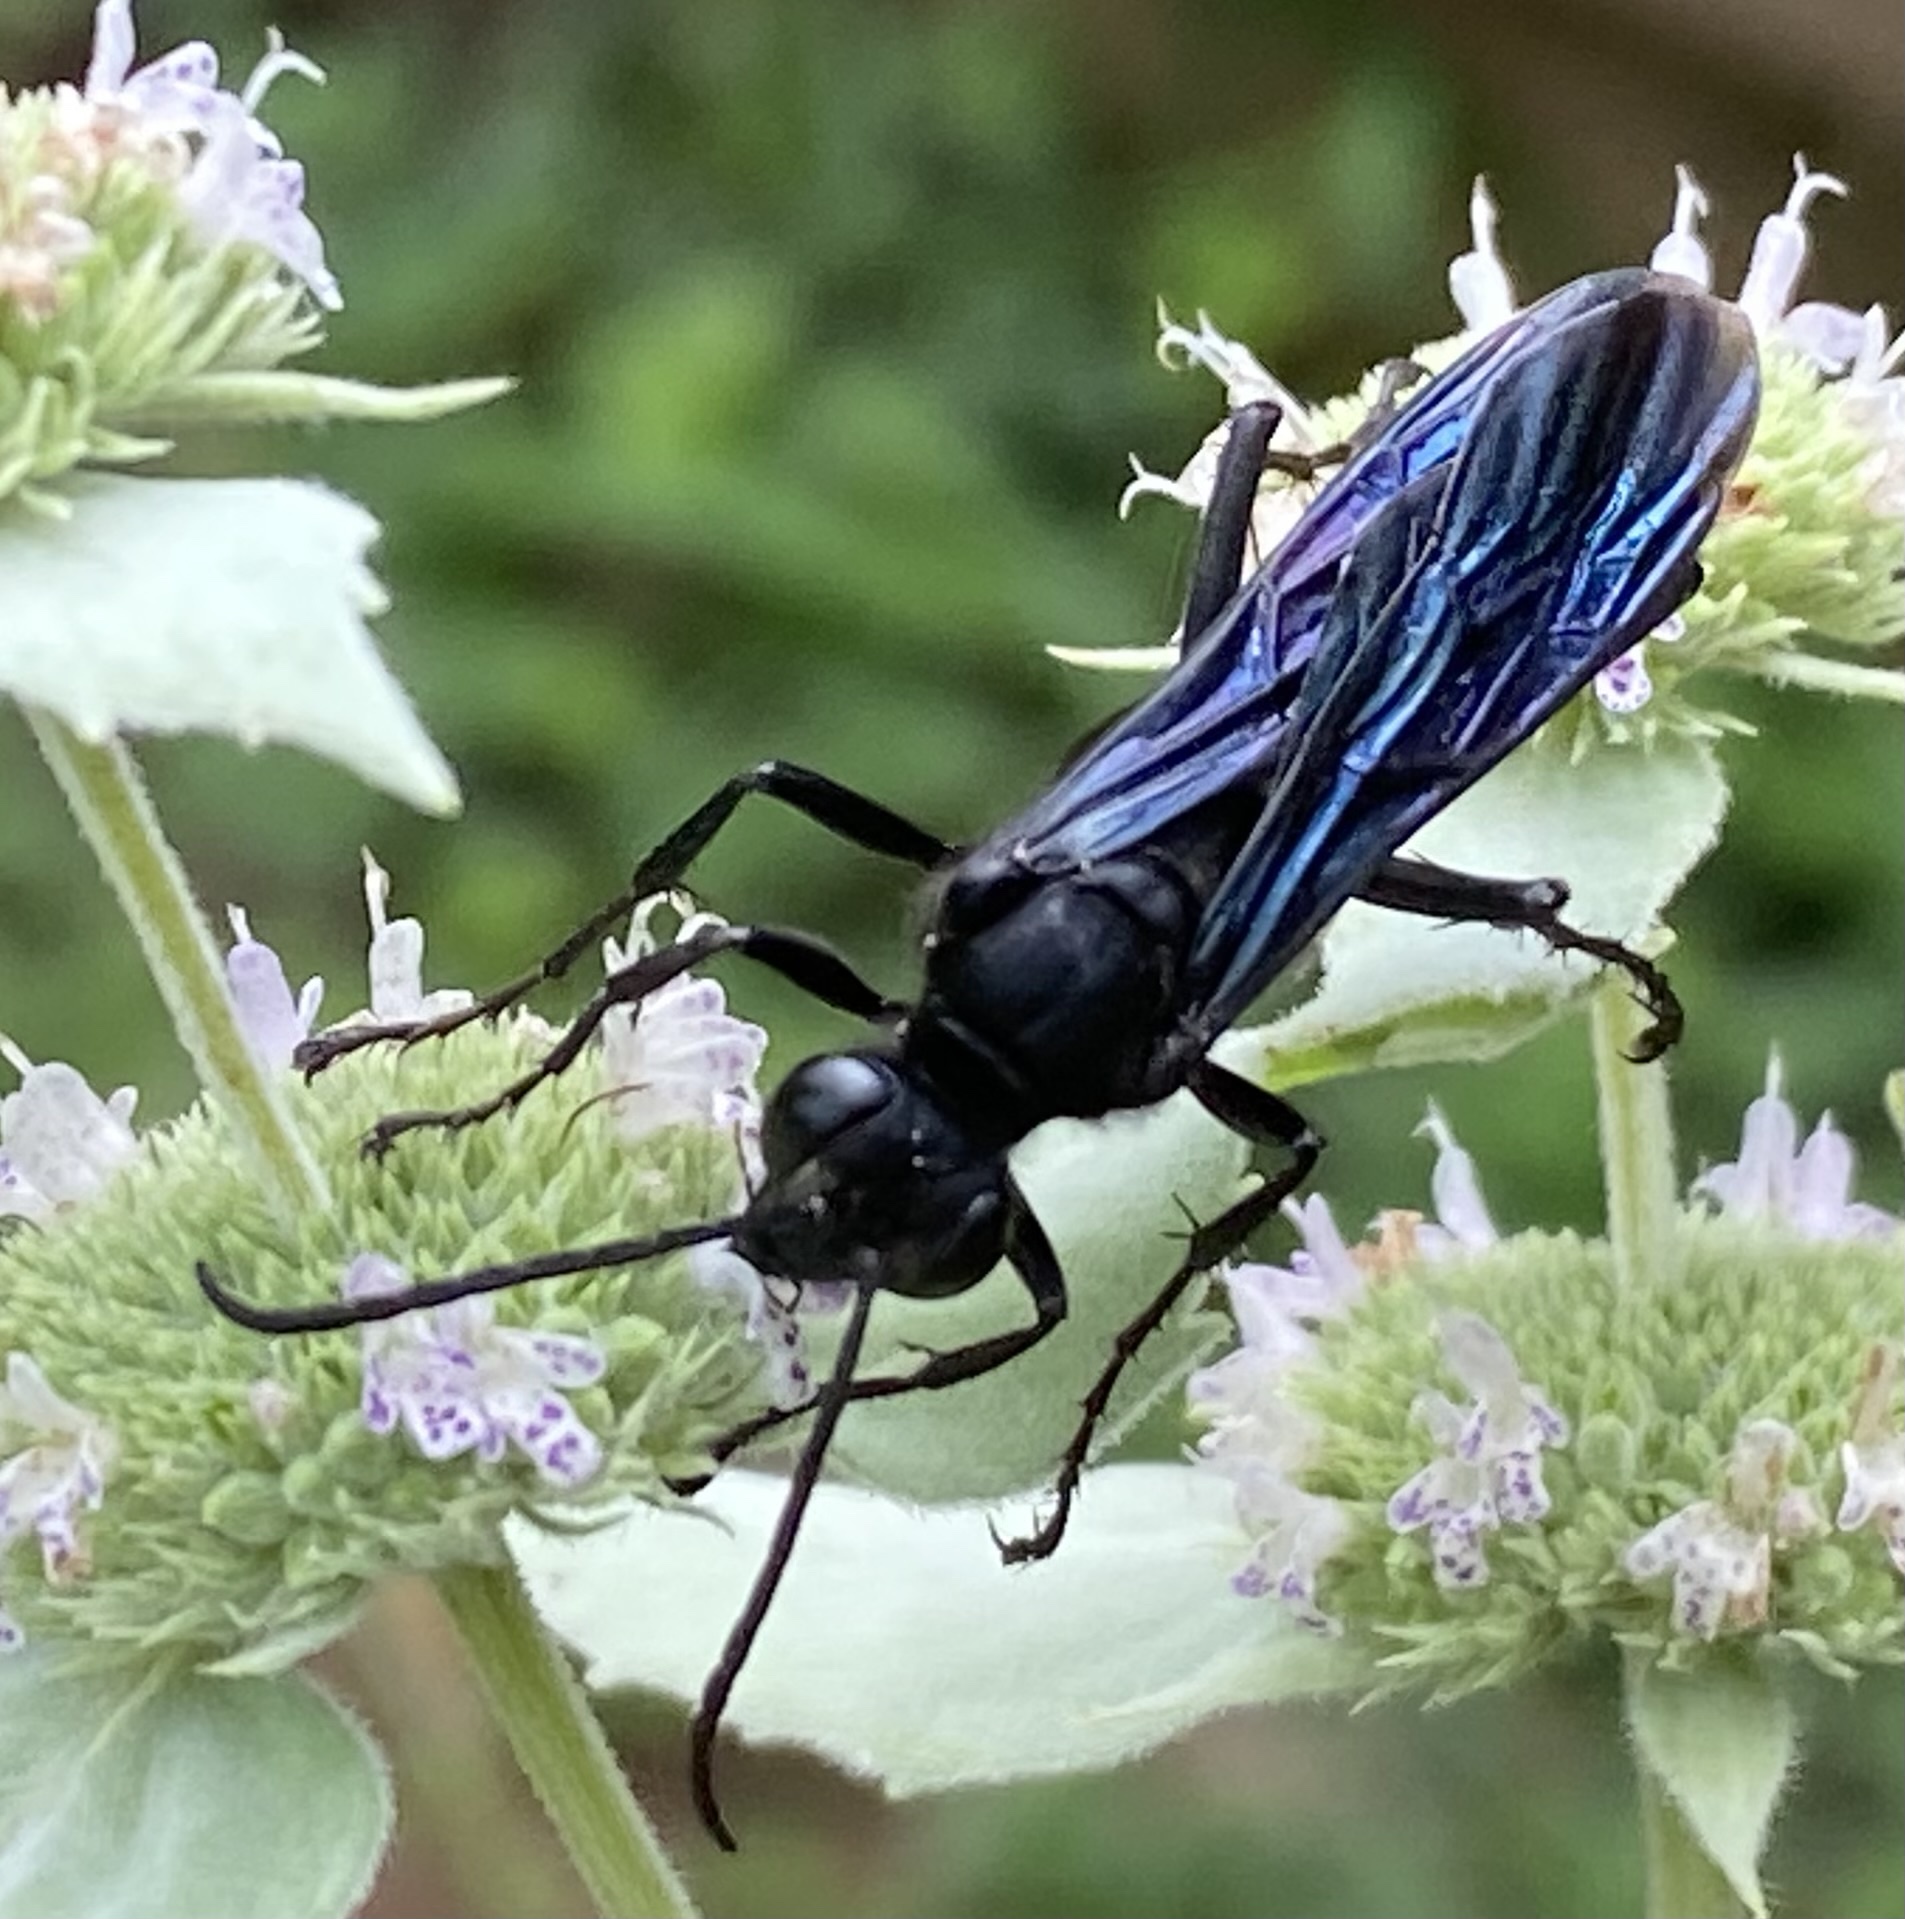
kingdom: Animalia
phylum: Arthropoda
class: Insecta
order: Hymenoptera
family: Sphecidae
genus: Sphex
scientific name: Sphex pensylvanicus
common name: Great black digger wasp
